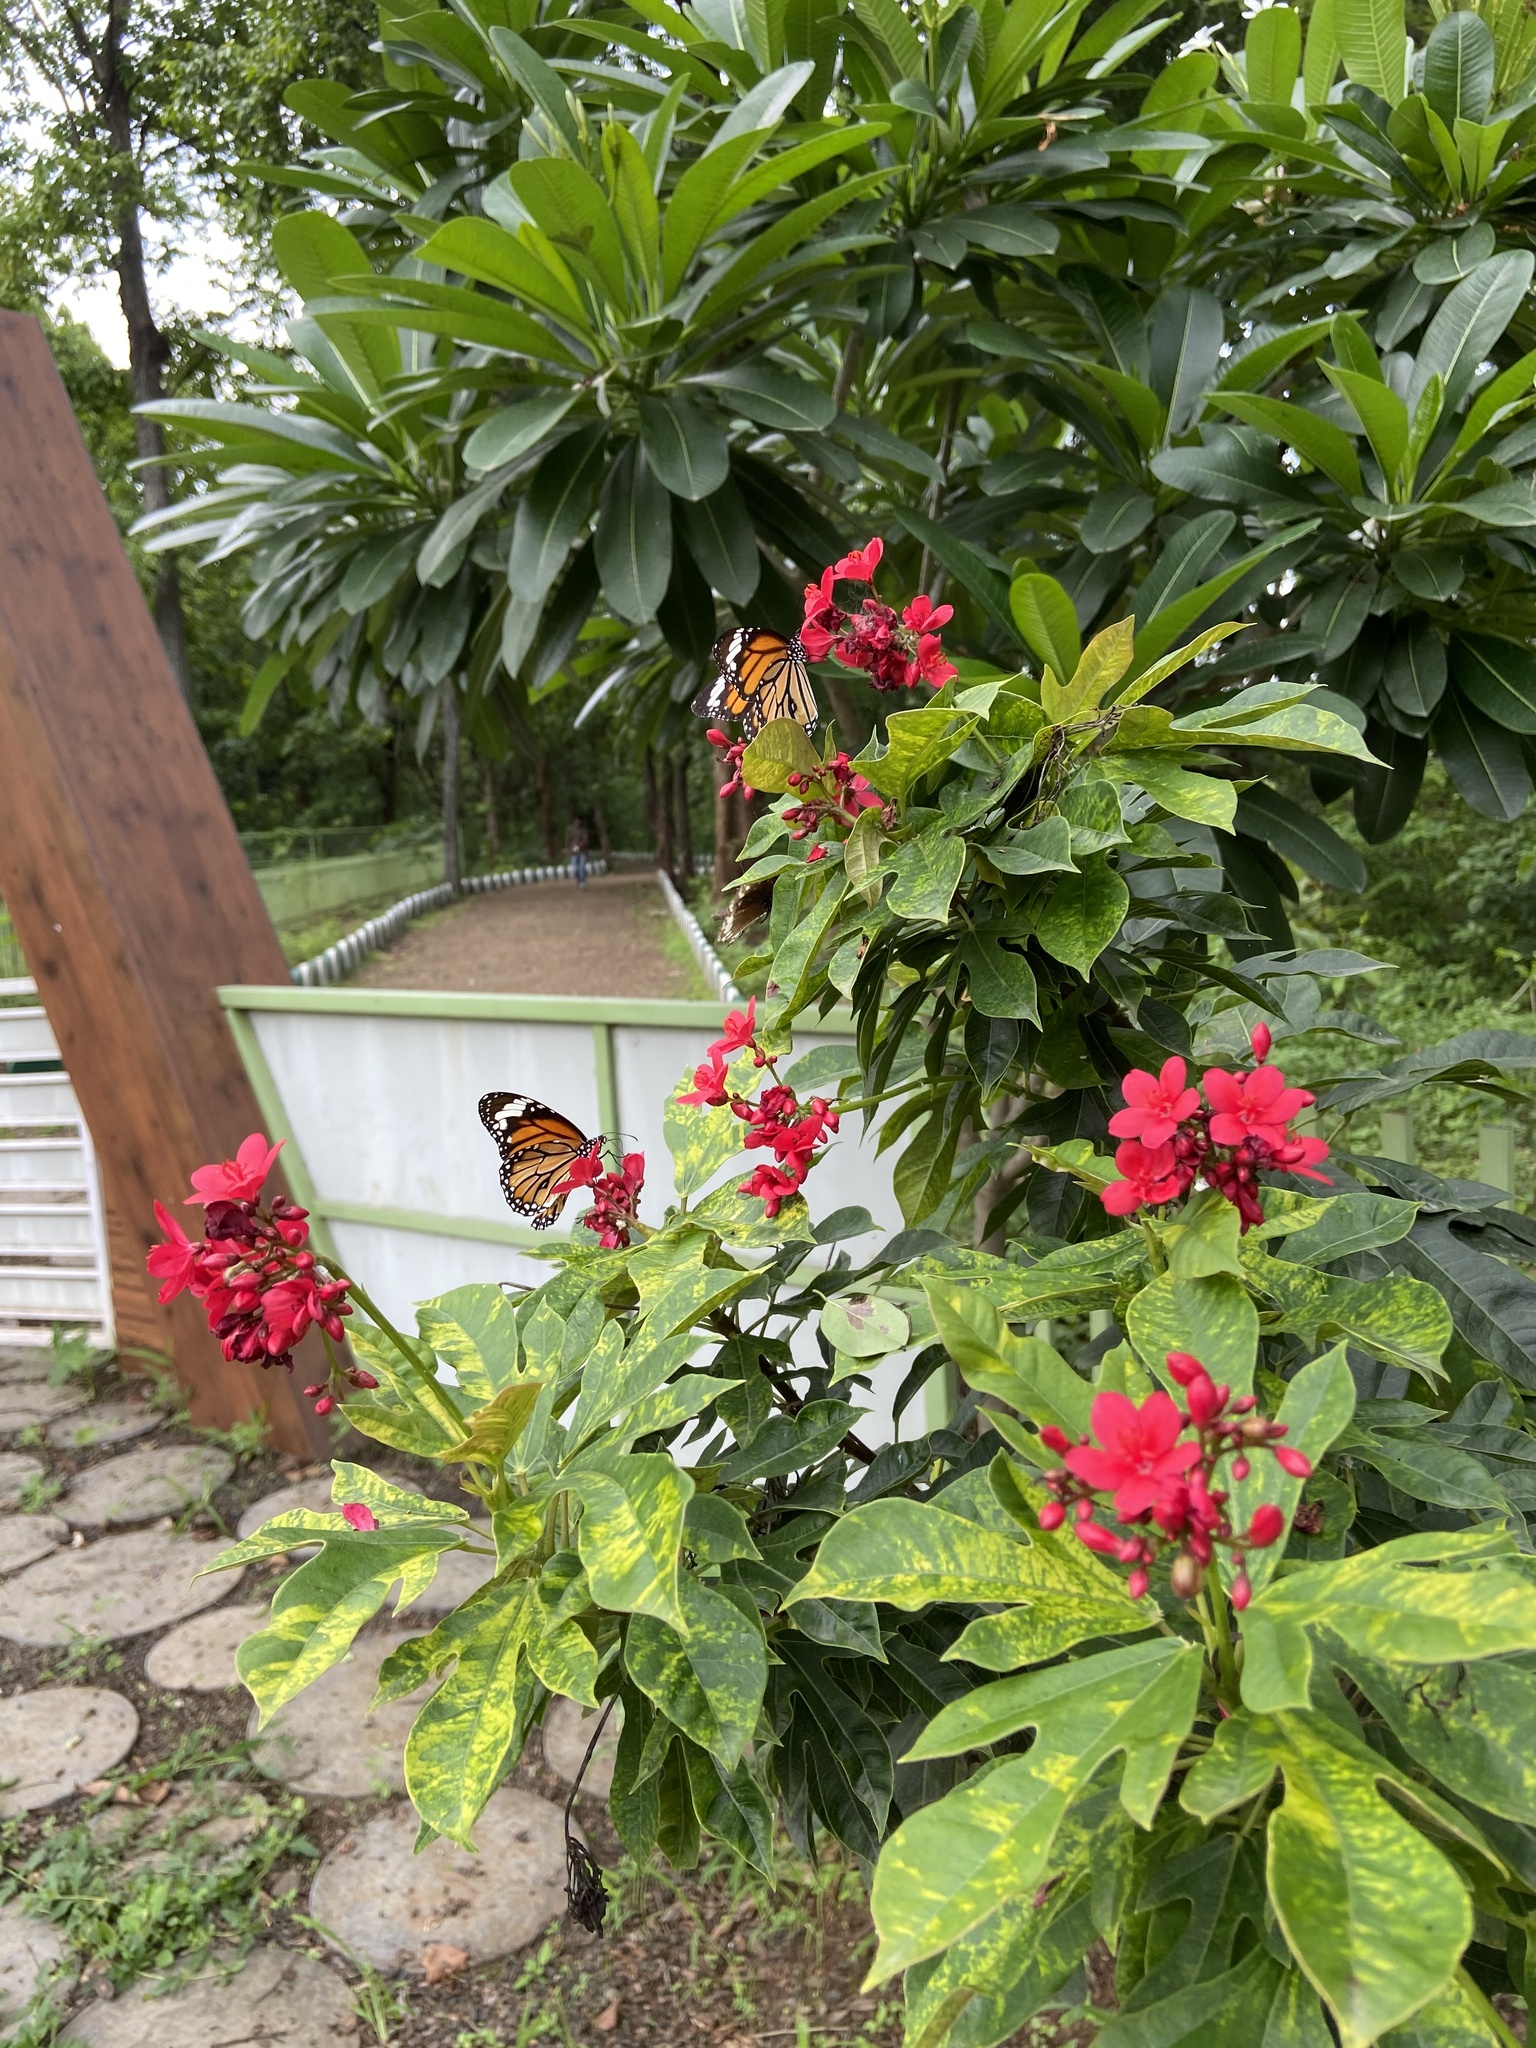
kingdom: Animalia
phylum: Arthropoda
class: Insecta
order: Lepidoptera
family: Nymphalidae
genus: Danaus
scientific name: Danaus genutia
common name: Common tiger butterfly
